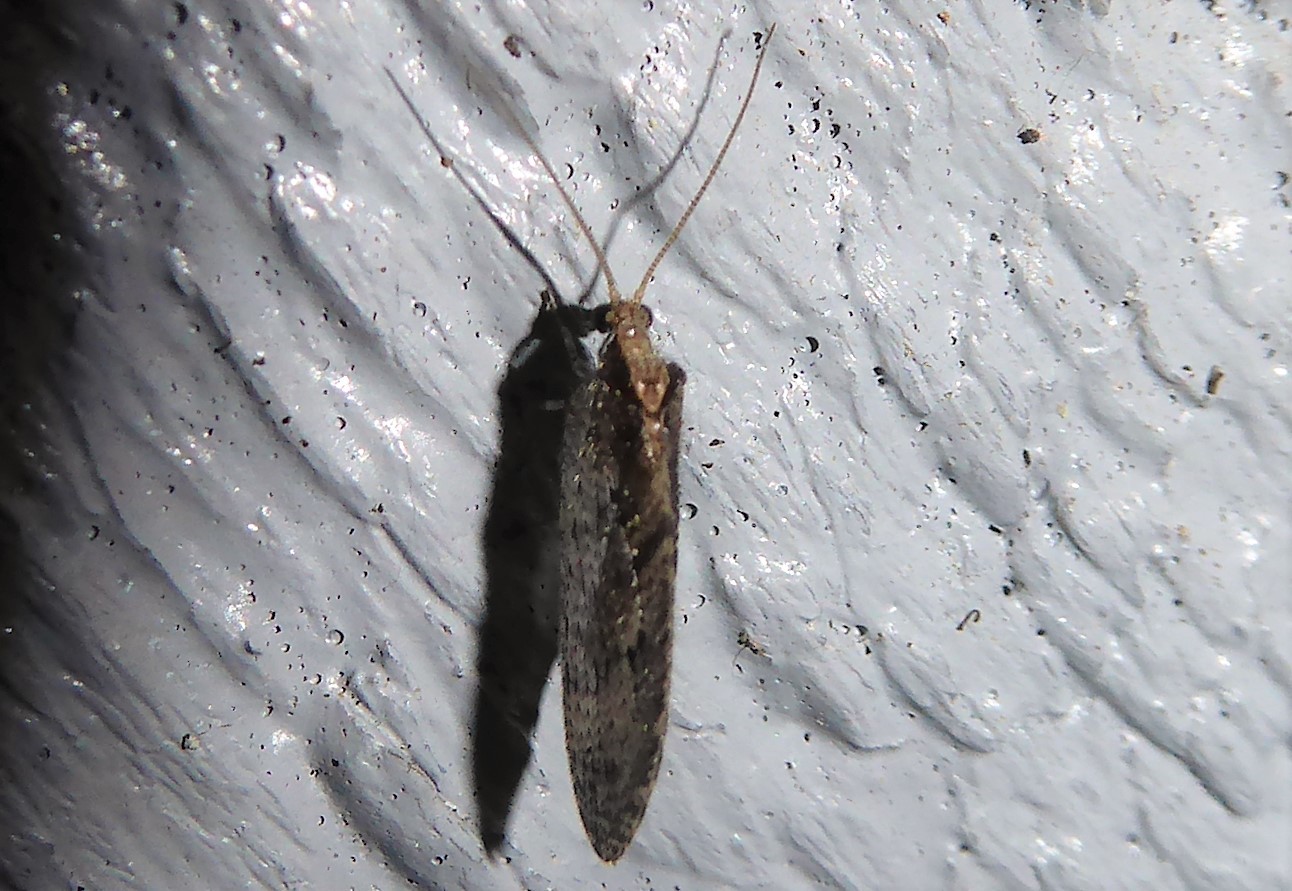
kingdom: Animalia
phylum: Arthropoda
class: Insecta
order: Neuroptera
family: Hemerobiidae
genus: Wesmaelius
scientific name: Wesmaelius subnebulosus
